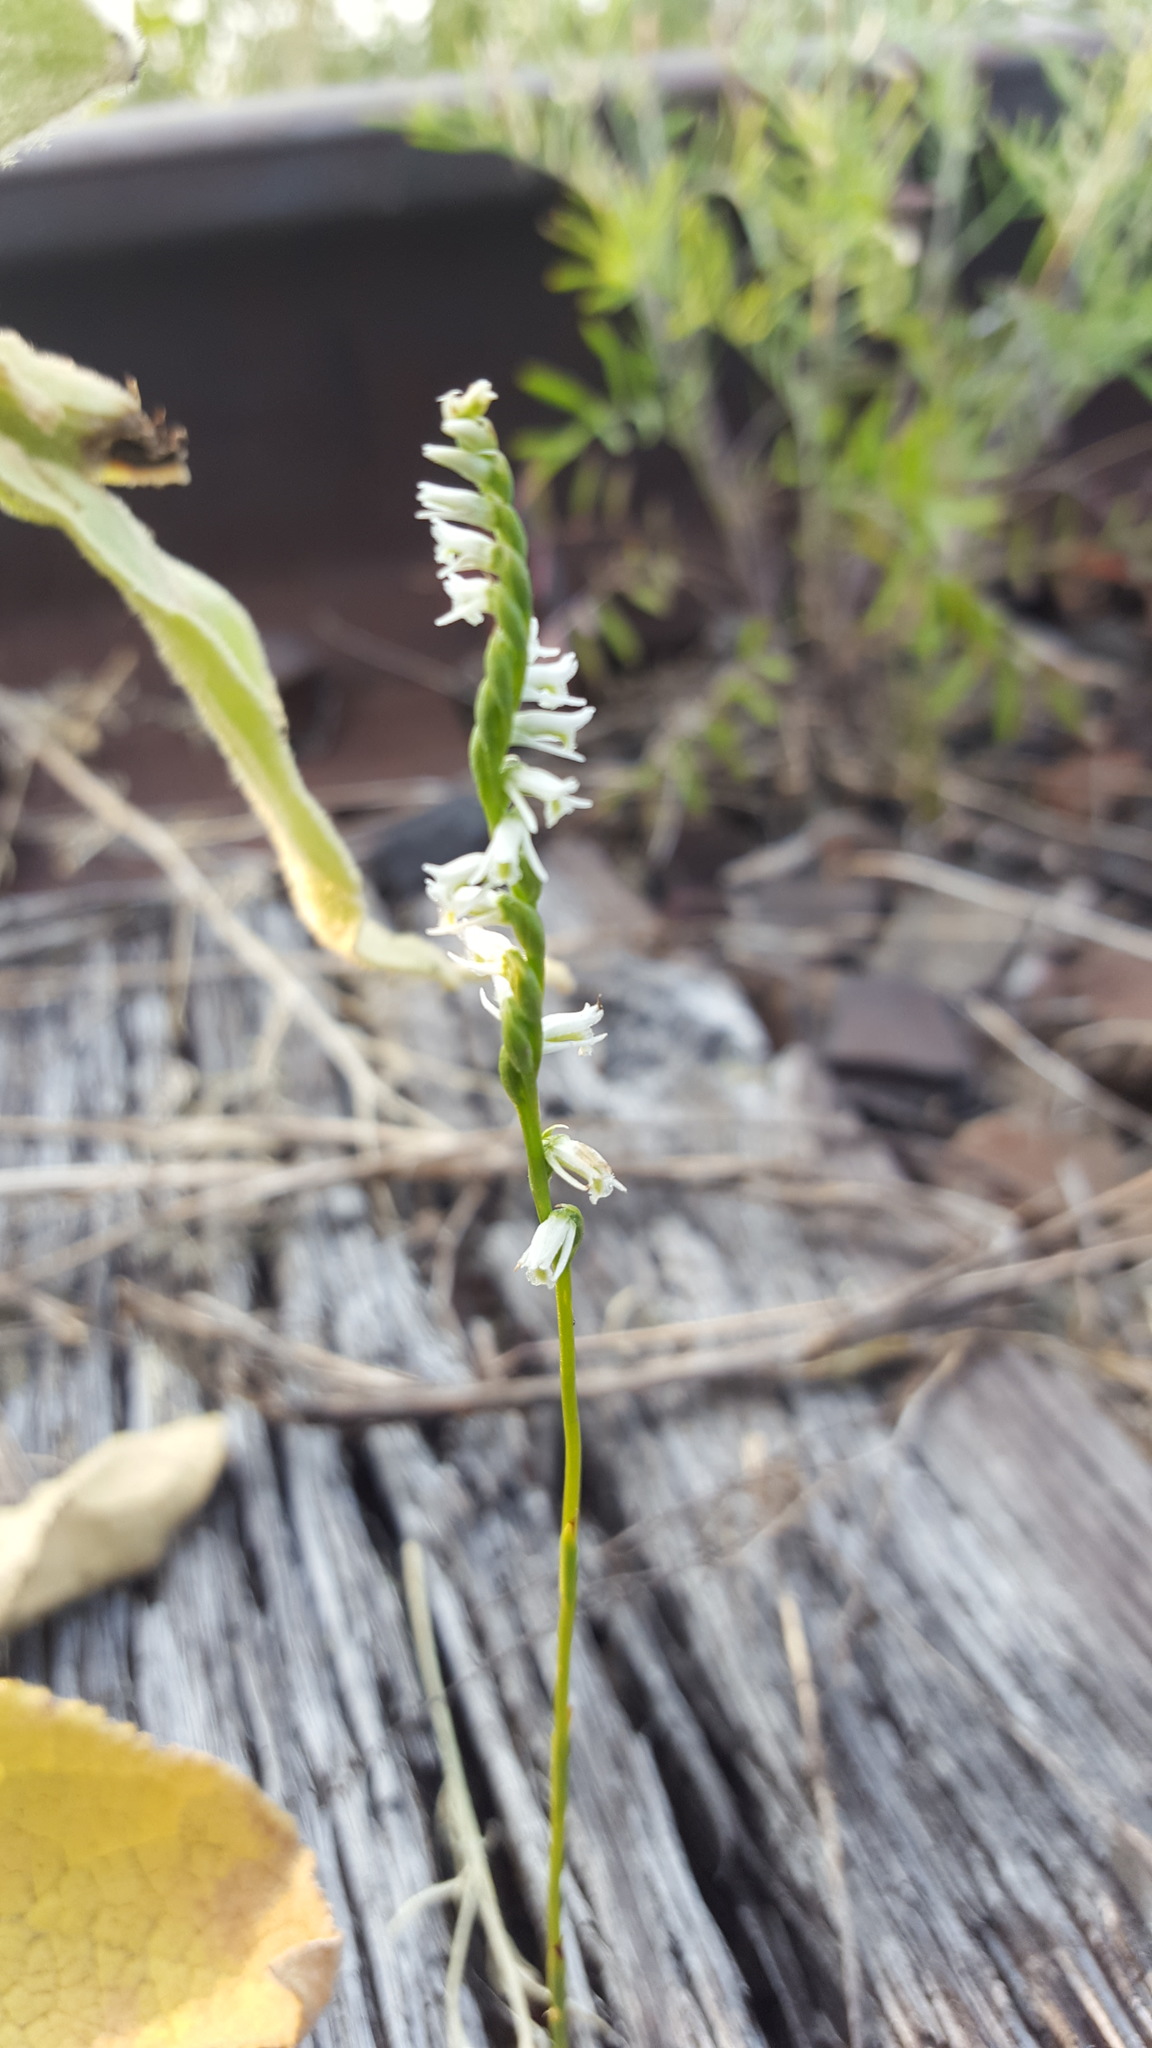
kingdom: Plantae
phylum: Tracheophyta
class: Liliopsida
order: Asparagales
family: Orchidaceae
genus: Spiranthes
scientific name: Spiranthes lacera
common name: Northern slender ladies'-tresses
